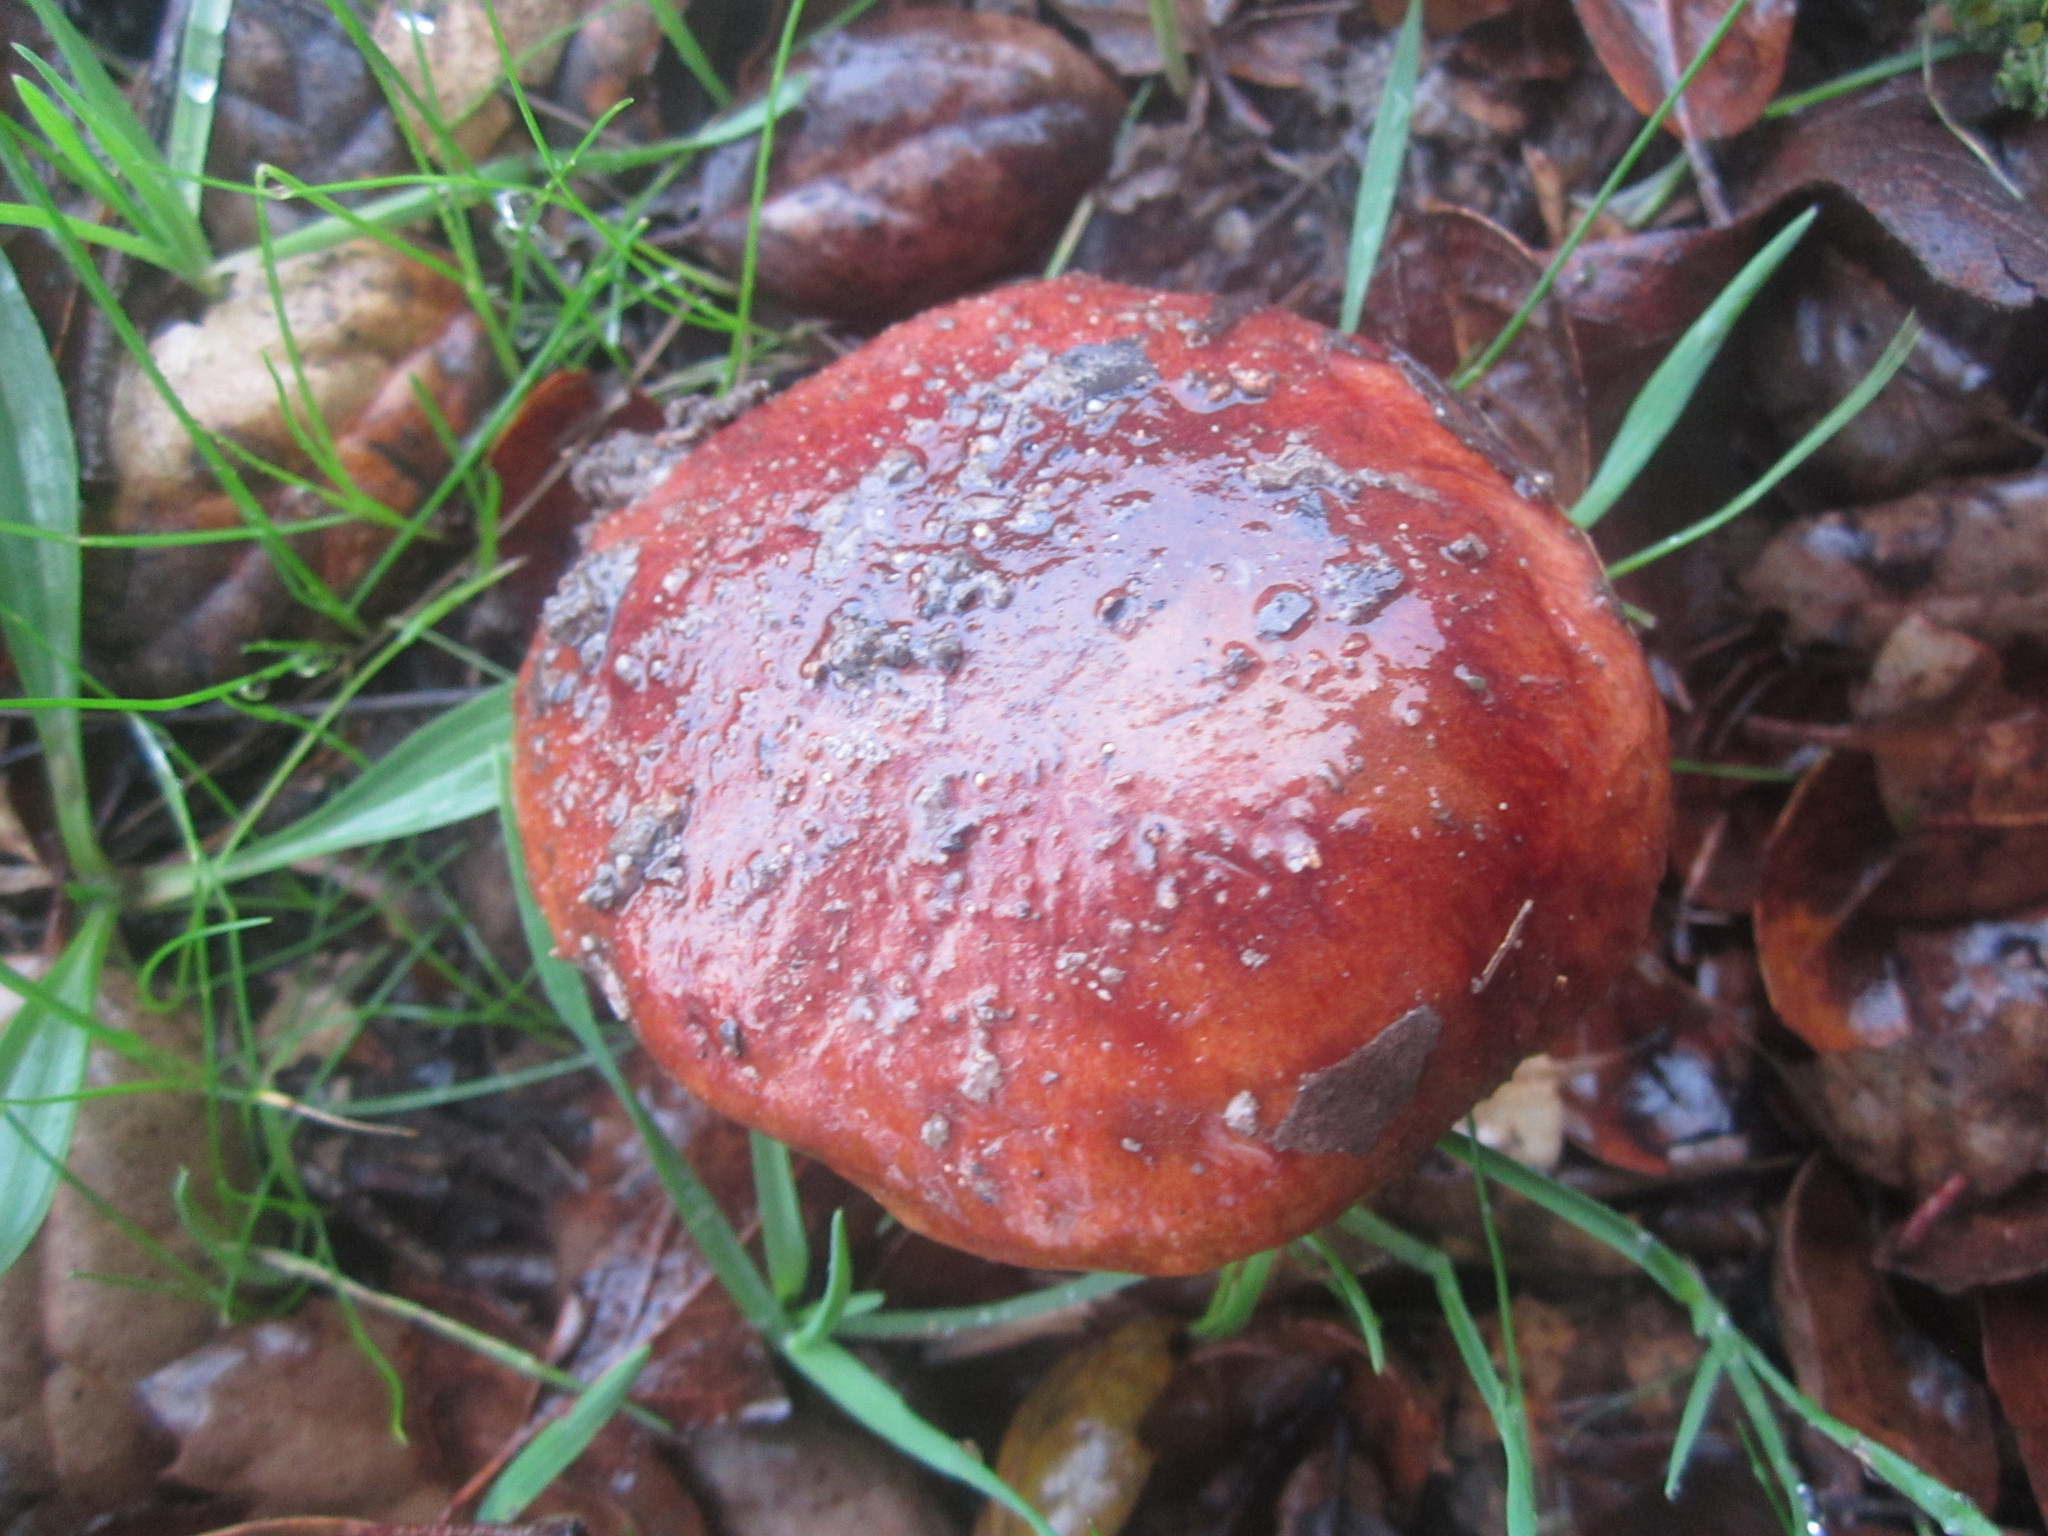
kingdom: Fungi
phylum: Basidiomycota
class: Agaricomycetes
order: Boletales
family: Boletaceae
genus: Aureoboletus
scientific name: Aureoboletus flaviporus
